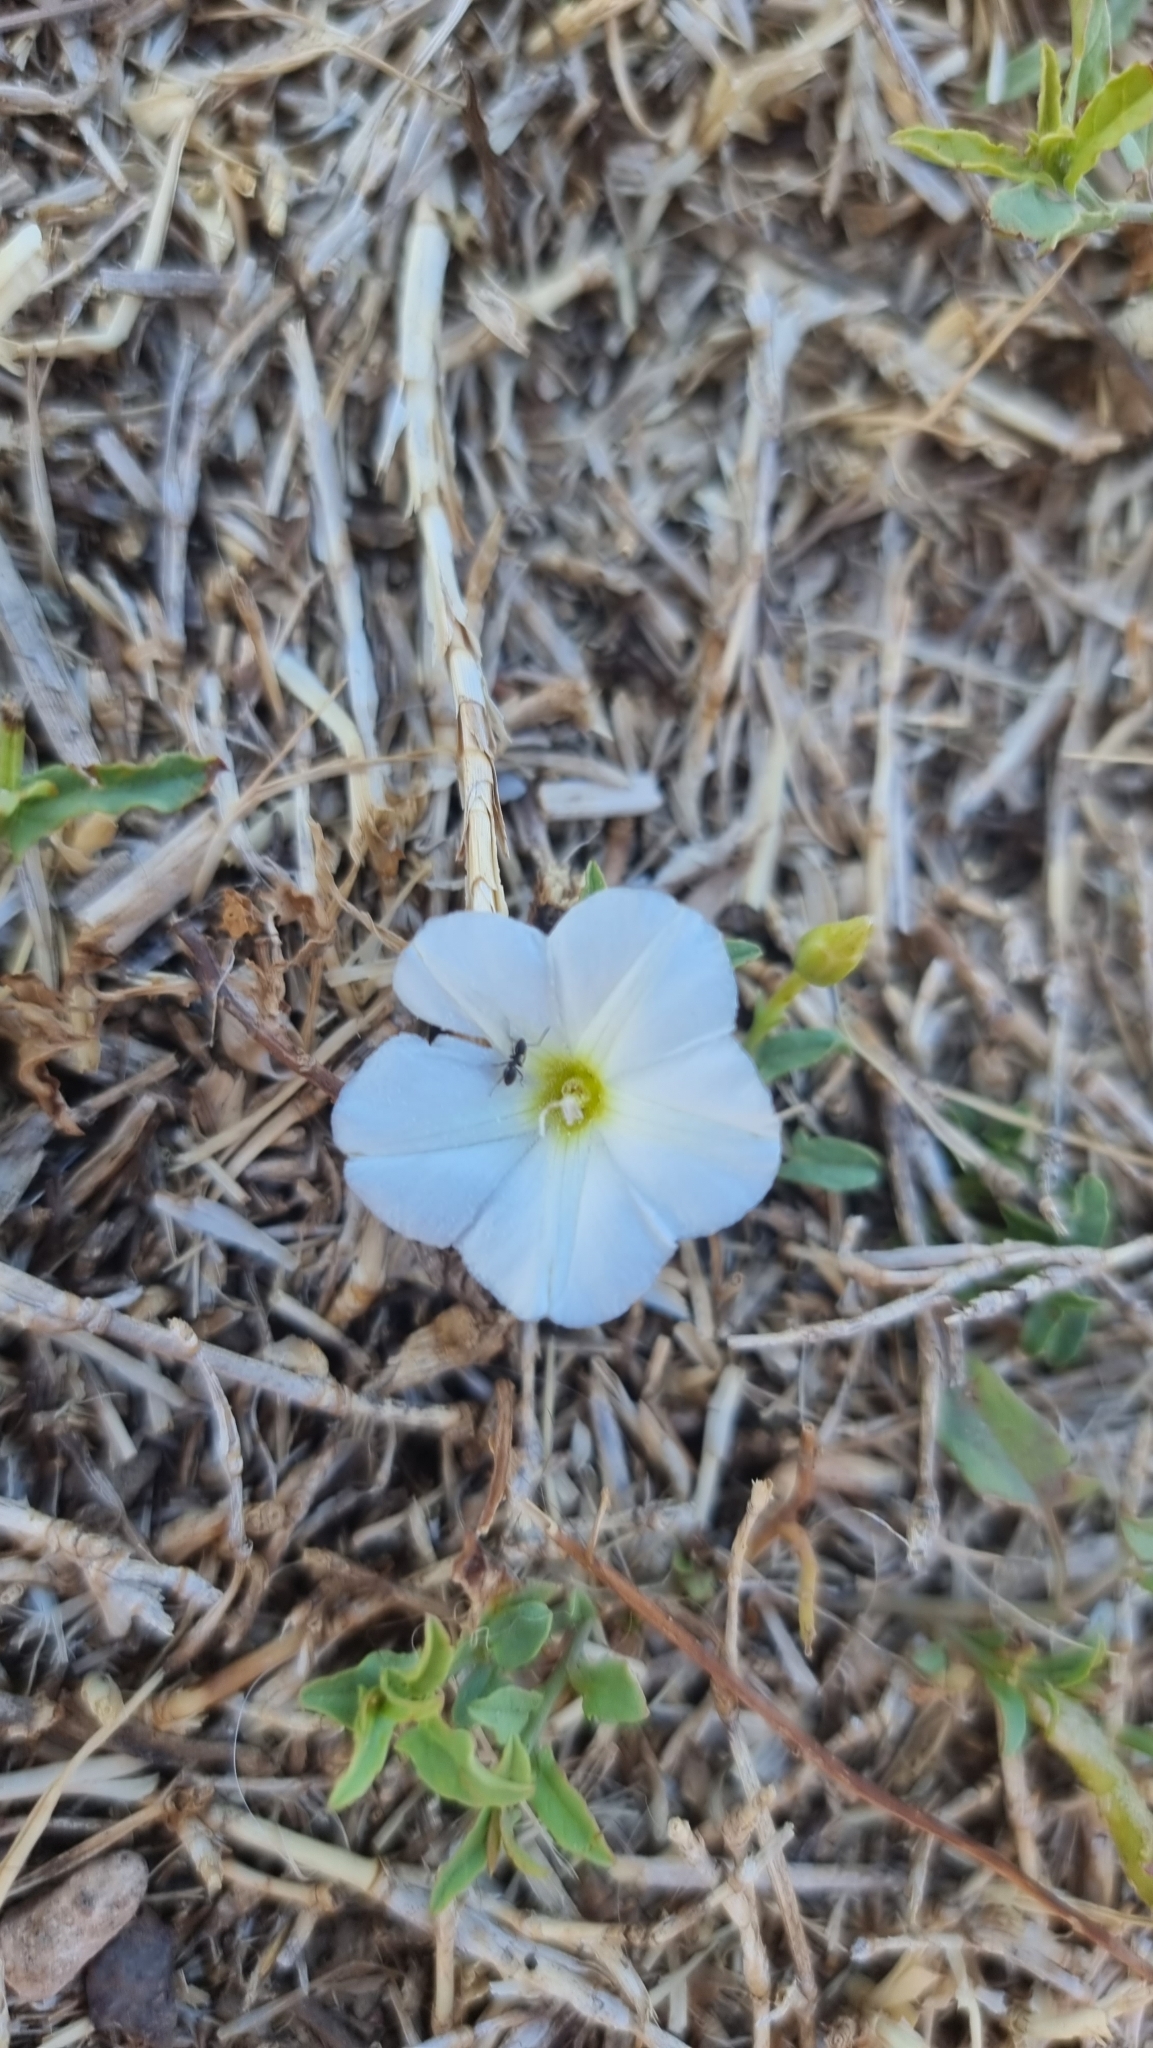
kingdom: Plantae
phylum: Tracheophyta
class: Magnoliopsida
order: Solanales
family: Convolvulaceae
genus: Convolvulus
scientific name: Convolvulus arvensis
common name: Field bindweed
